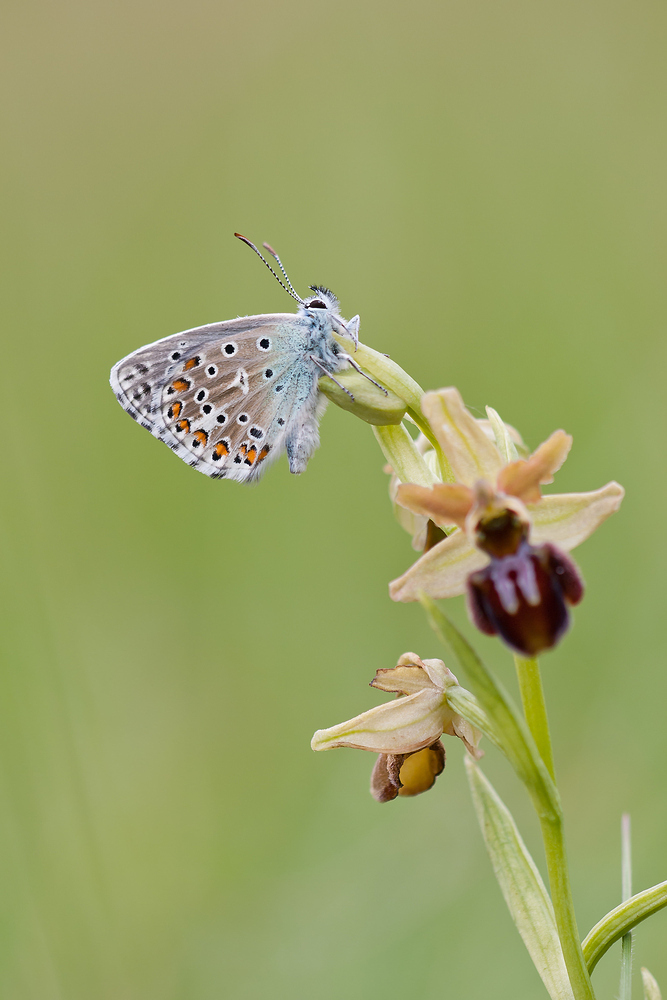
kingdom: Animalia
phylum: Arthropoda
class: Insecta
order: Lepidoptera
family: Lycaenidae
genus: Lysandra
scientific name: Lysandra bellargus
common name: Adonis blue
